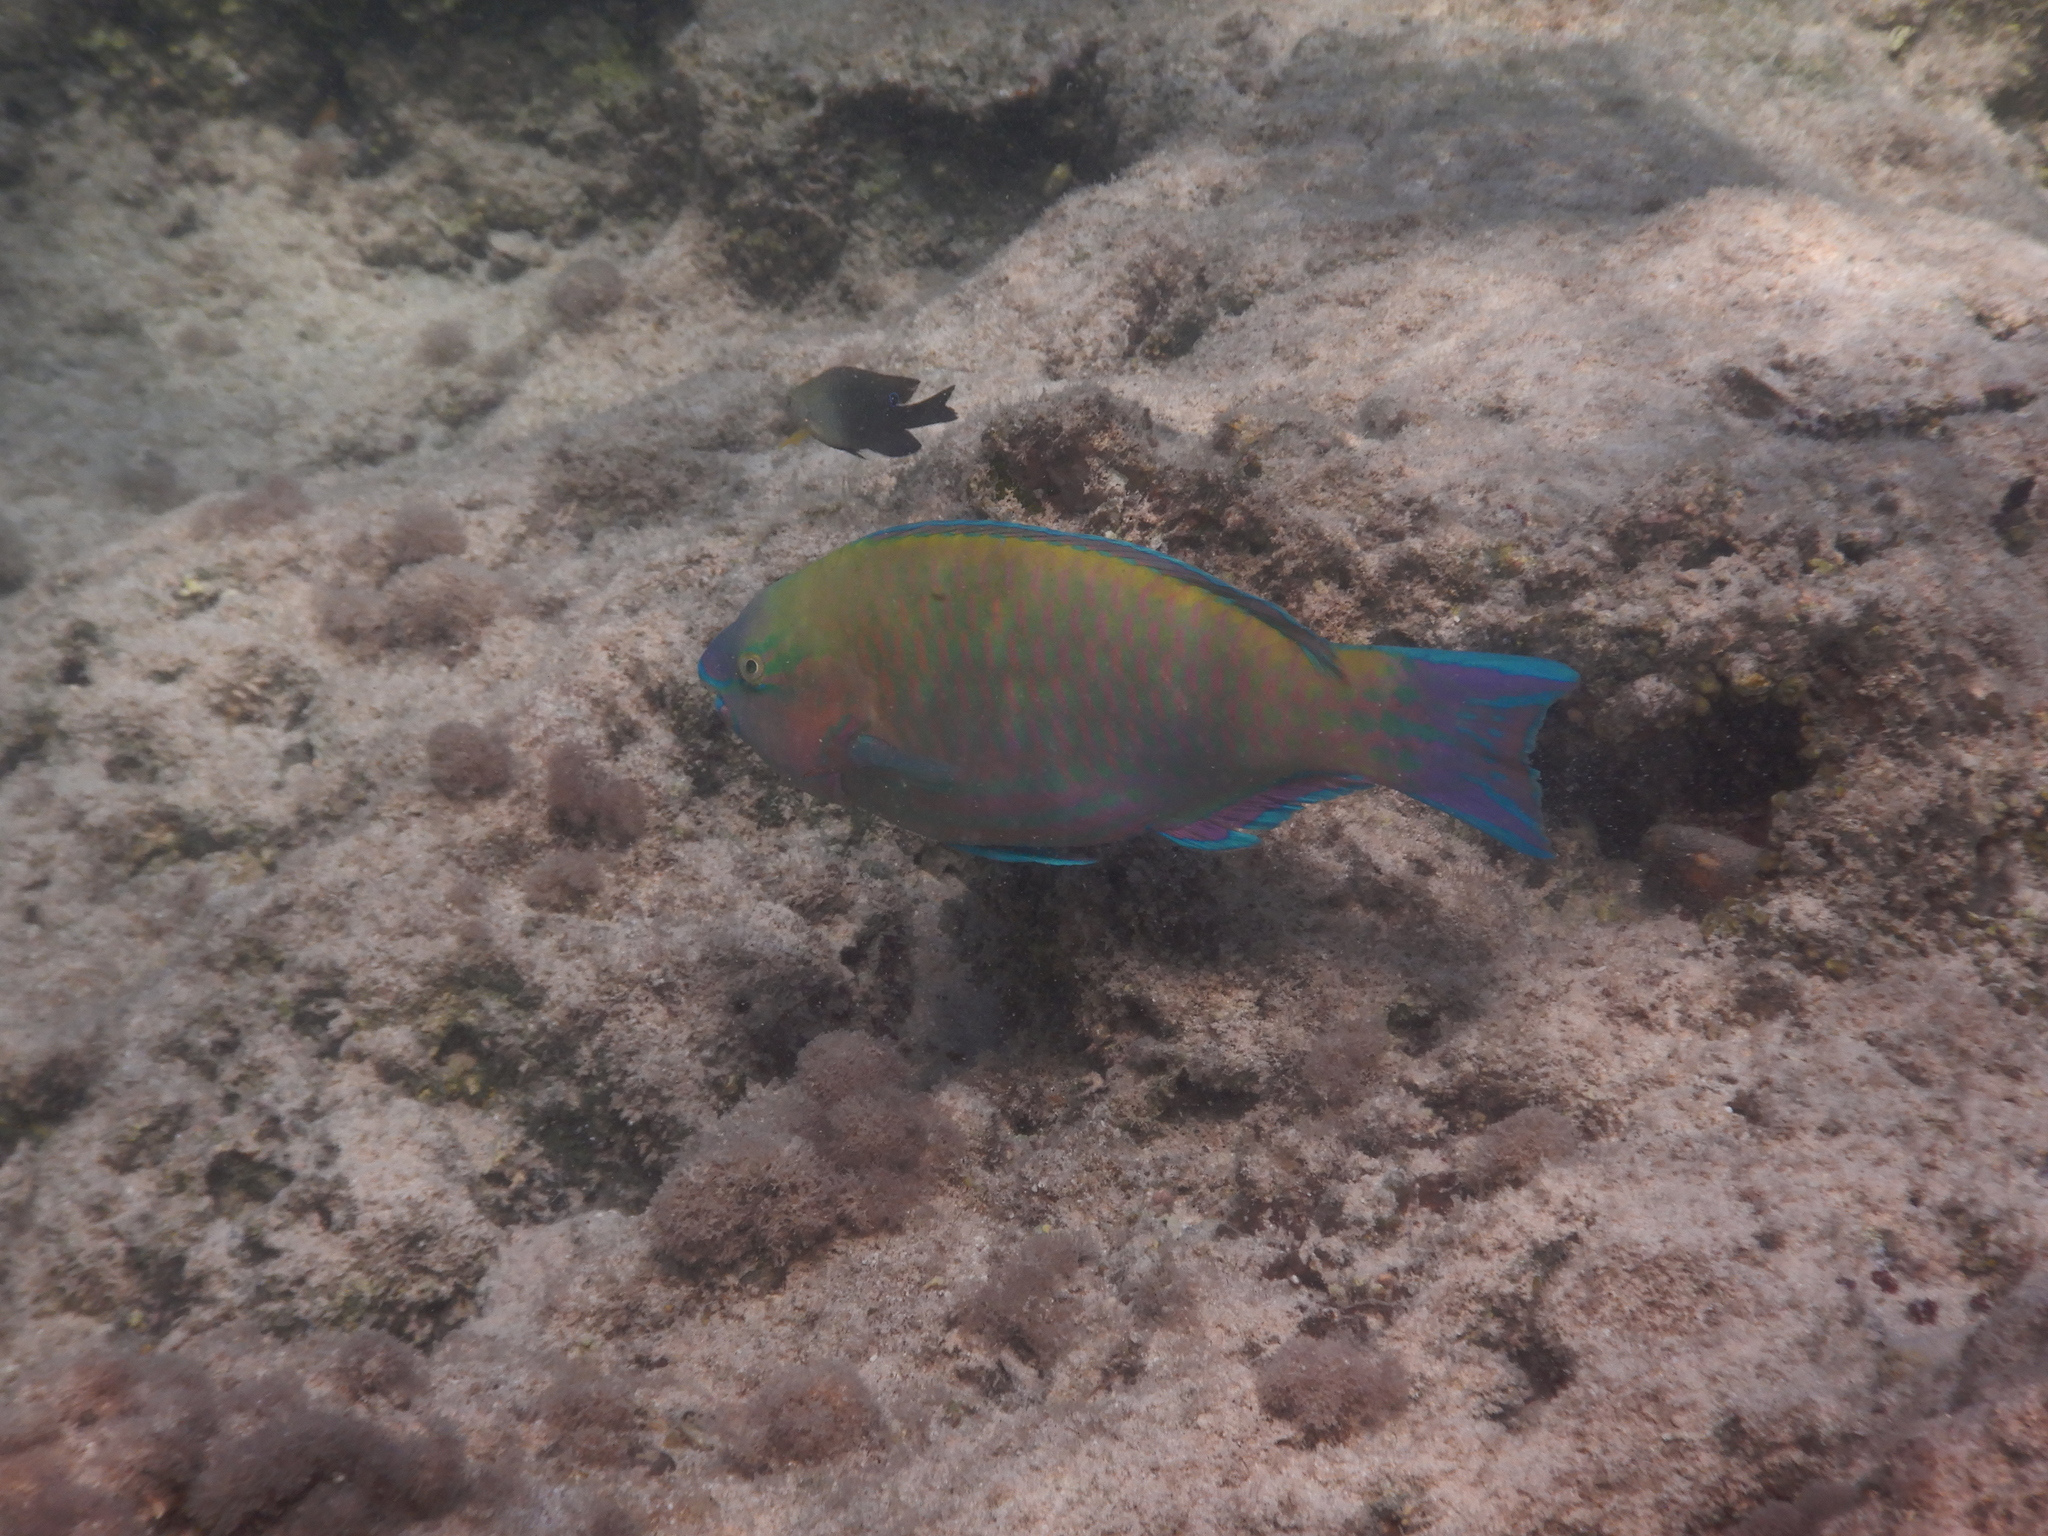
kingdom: Animalia
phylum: Chordata
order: Perciformes
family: Scaridae
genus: Scarus
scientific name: Scarus psittacus
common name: Palenose parrotfish
